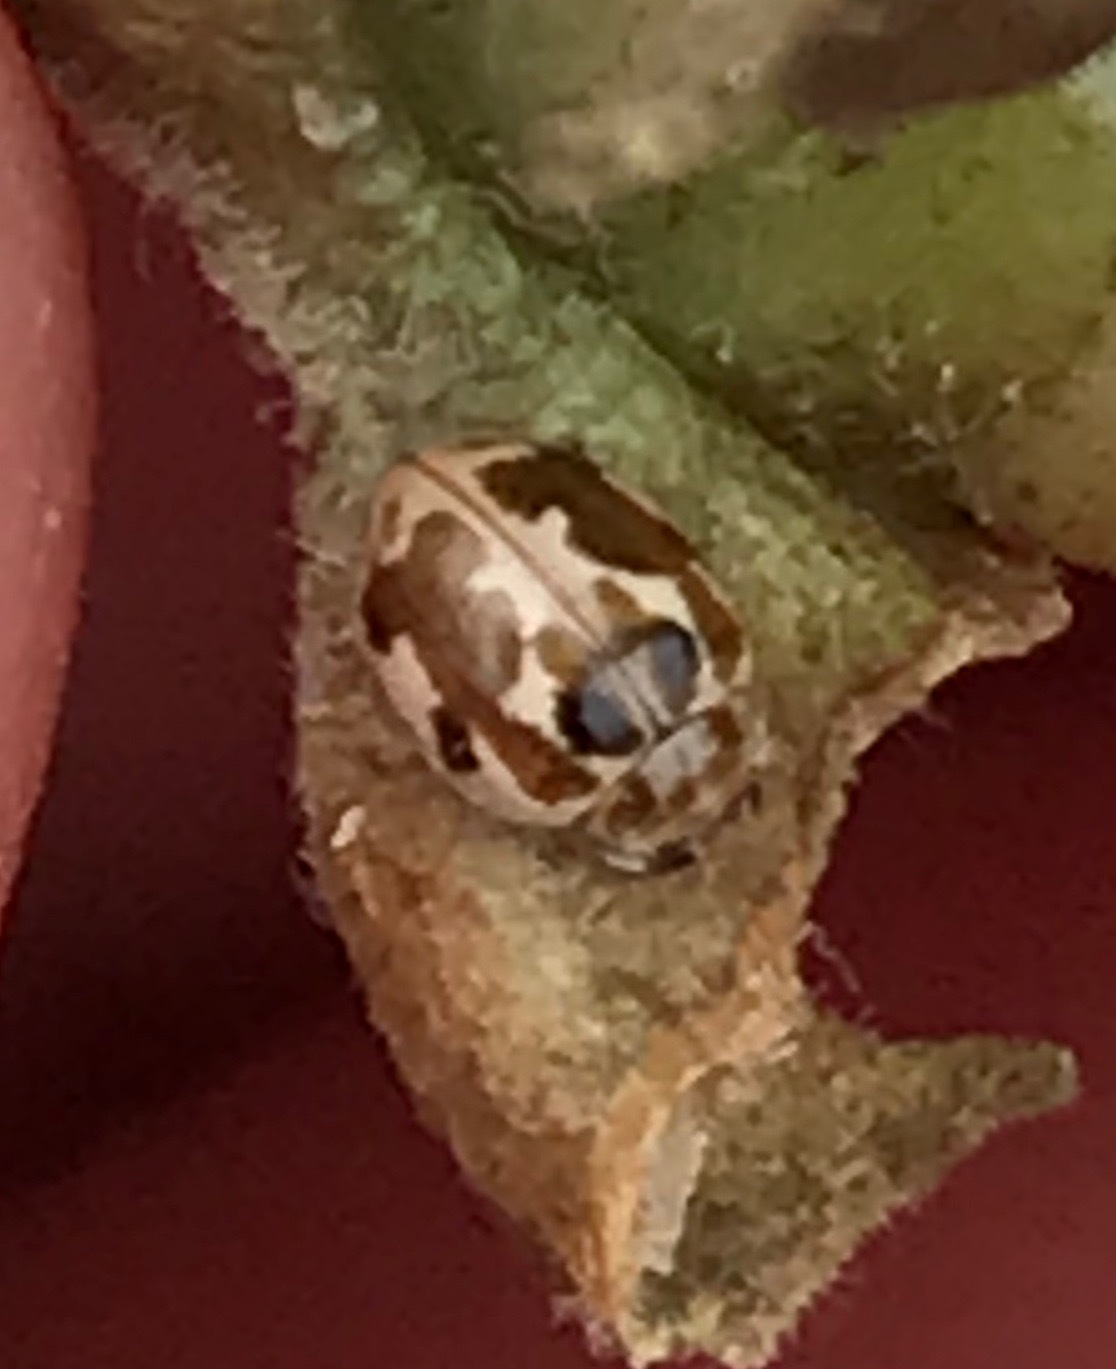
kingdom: Animalia
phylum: Arthropoda
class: Insecta
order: Coleoptera
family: Coccinellidae
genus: Psyllobora
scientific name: Psyllobora vigintimaculata
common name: Ladybird beetle
